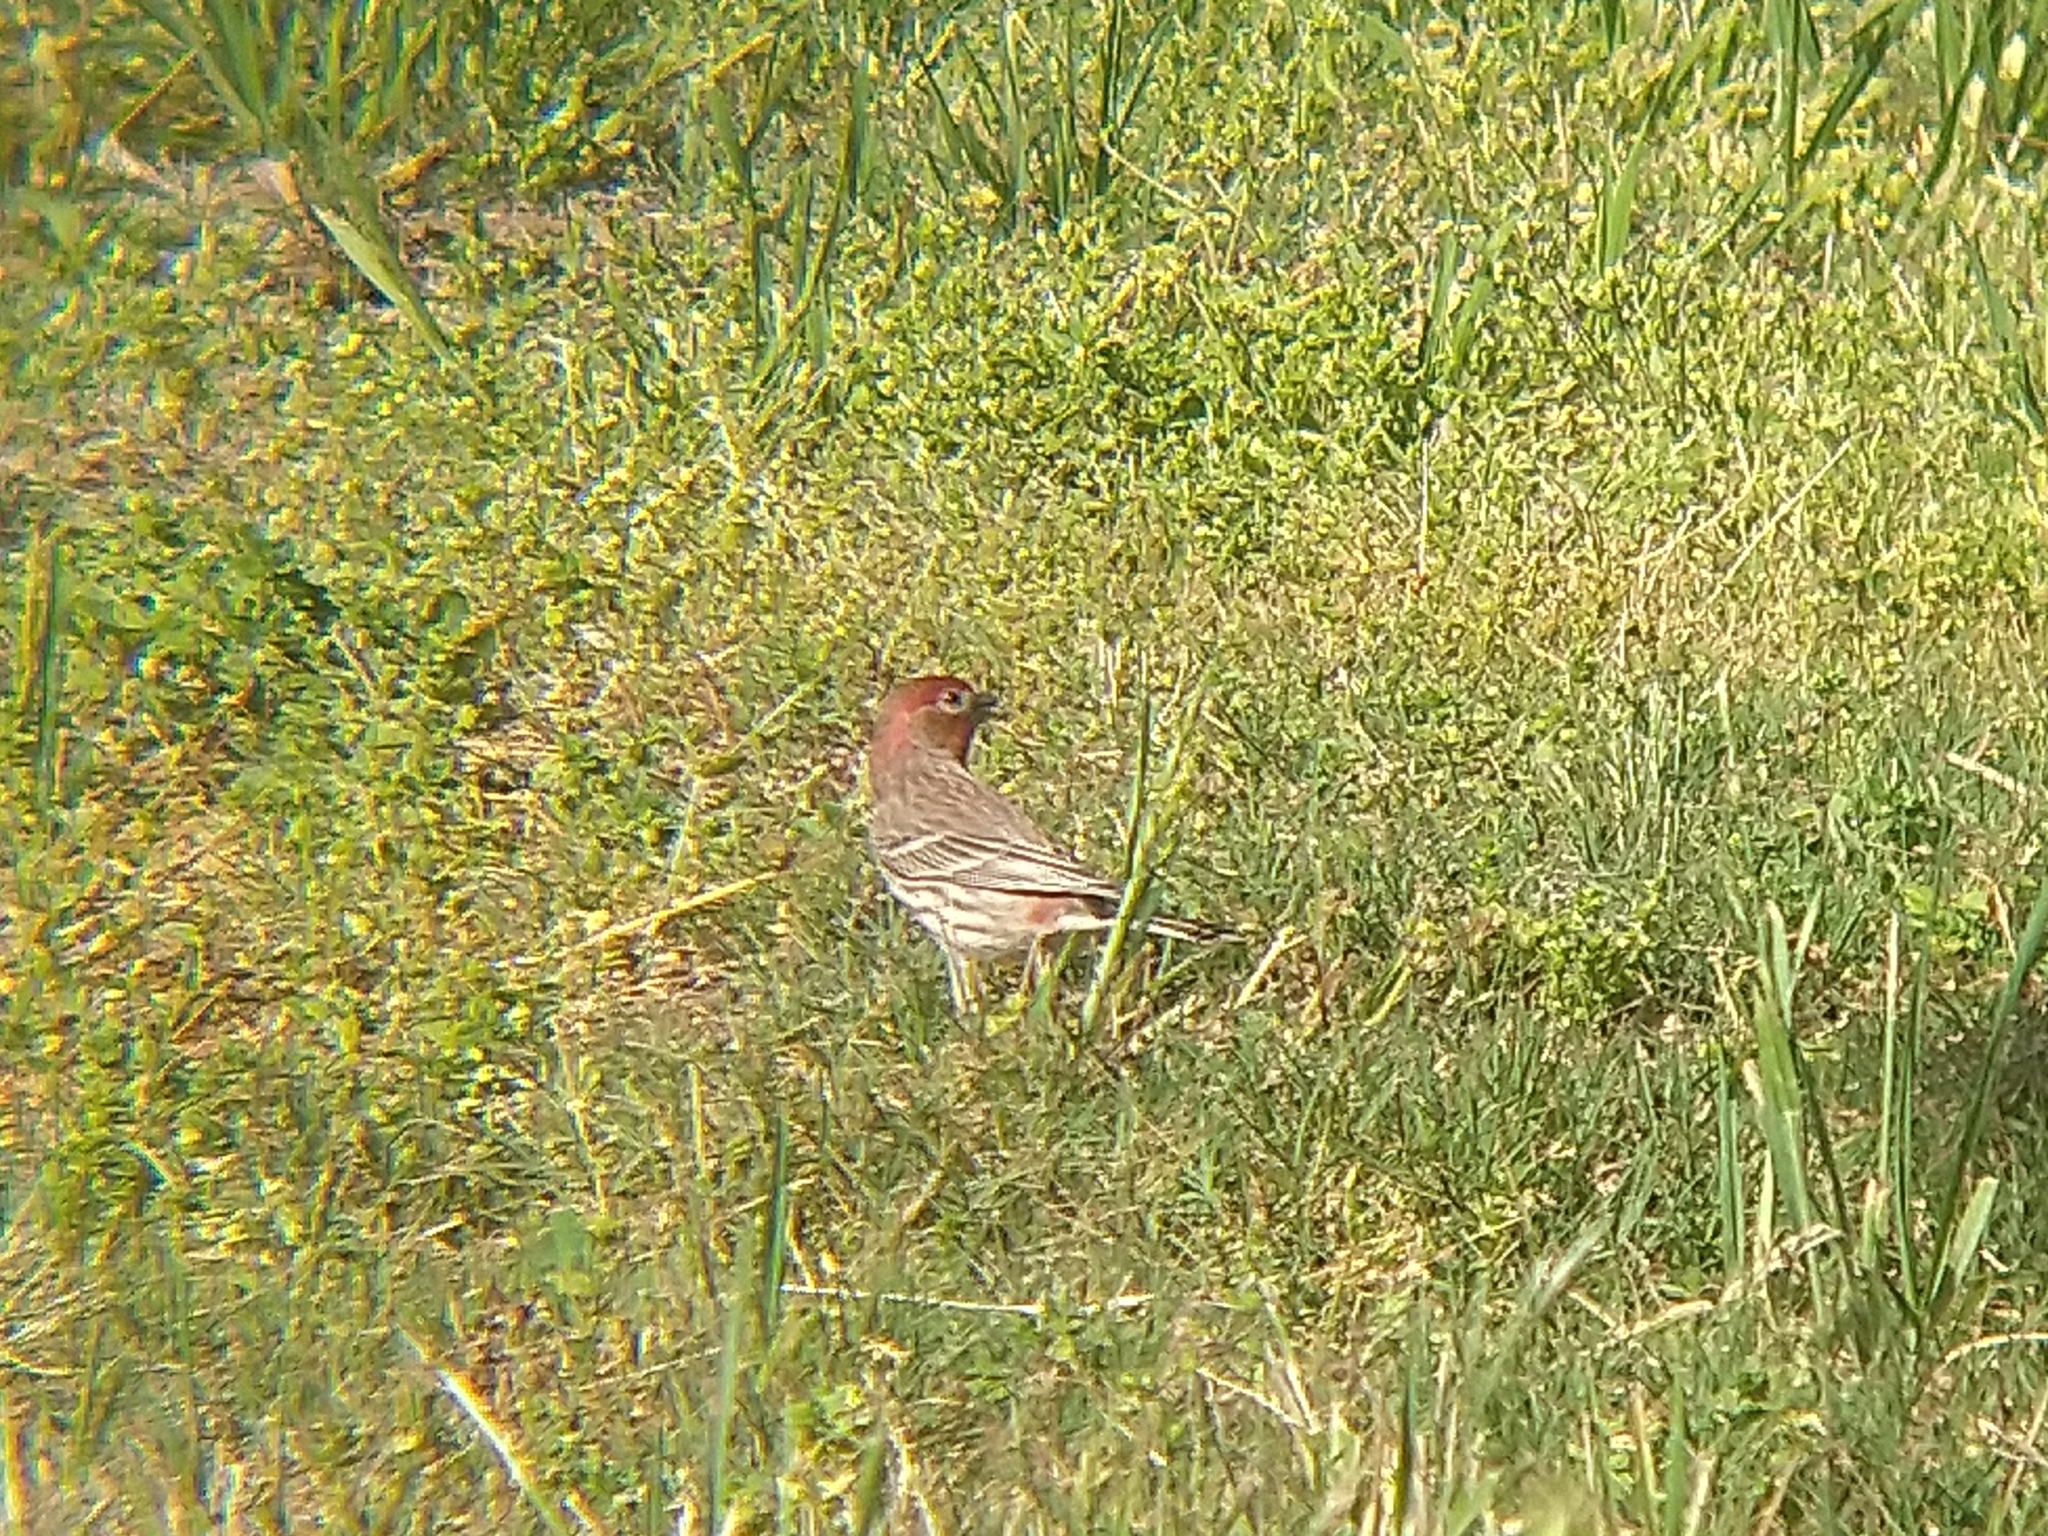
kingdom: Animalia
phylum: Chordata
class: Aves
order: Passeriformes
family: Fringillidae
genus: Haemorhous
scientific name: Haemorhous mexicanus
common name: House finch
